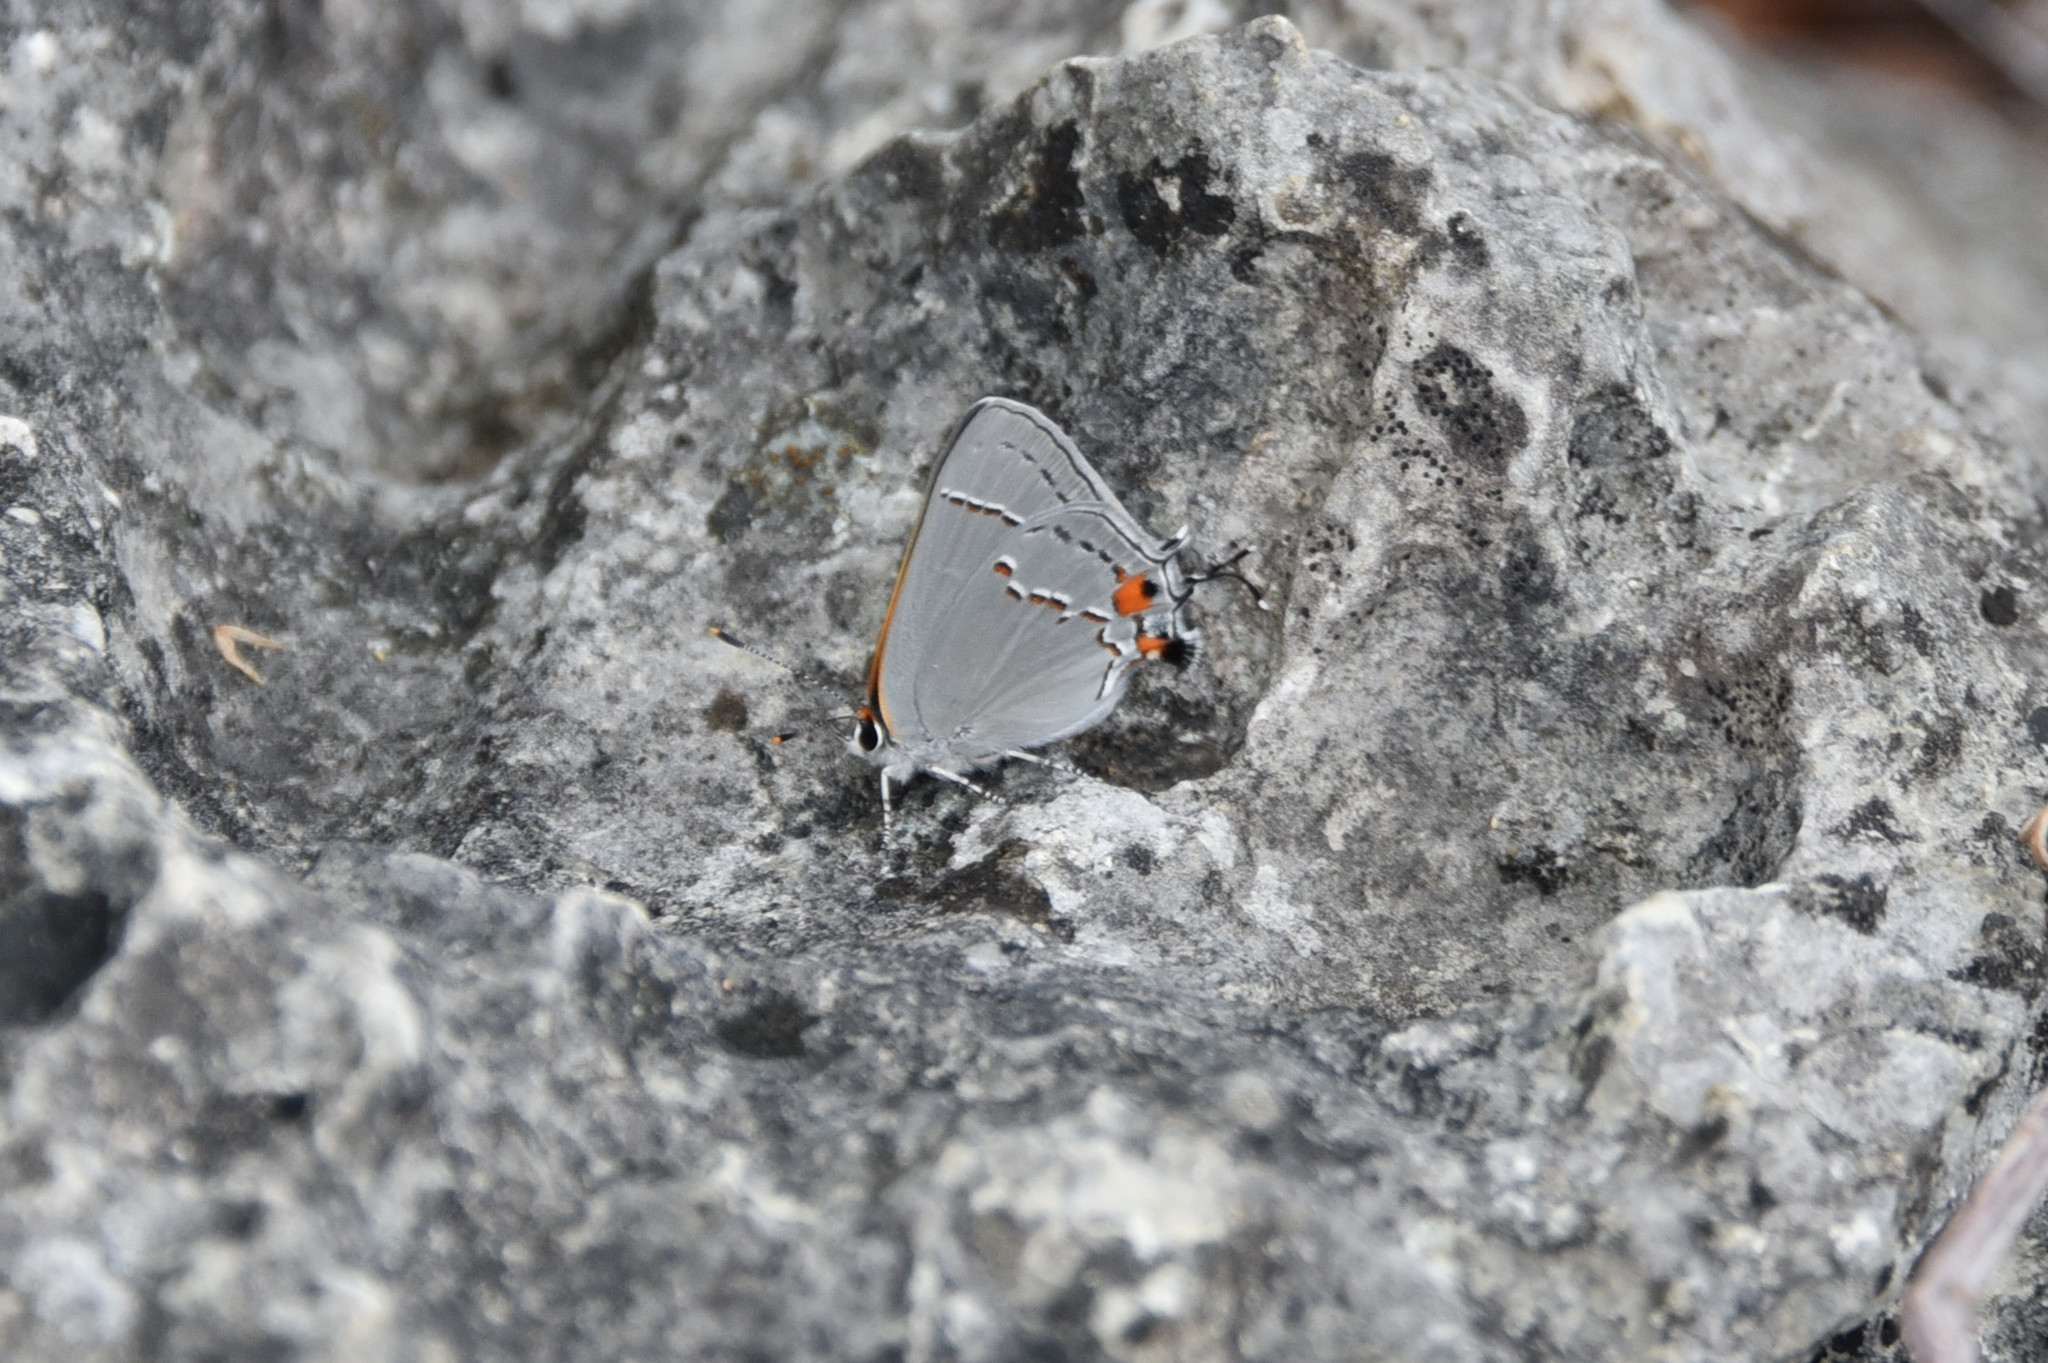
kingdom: Animalia
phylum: Arthropoda
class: Insecta
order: Lepidoptera
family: Lycaenidae
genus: Strymon
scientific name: Strymon melinus
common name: Gray hairstreak
